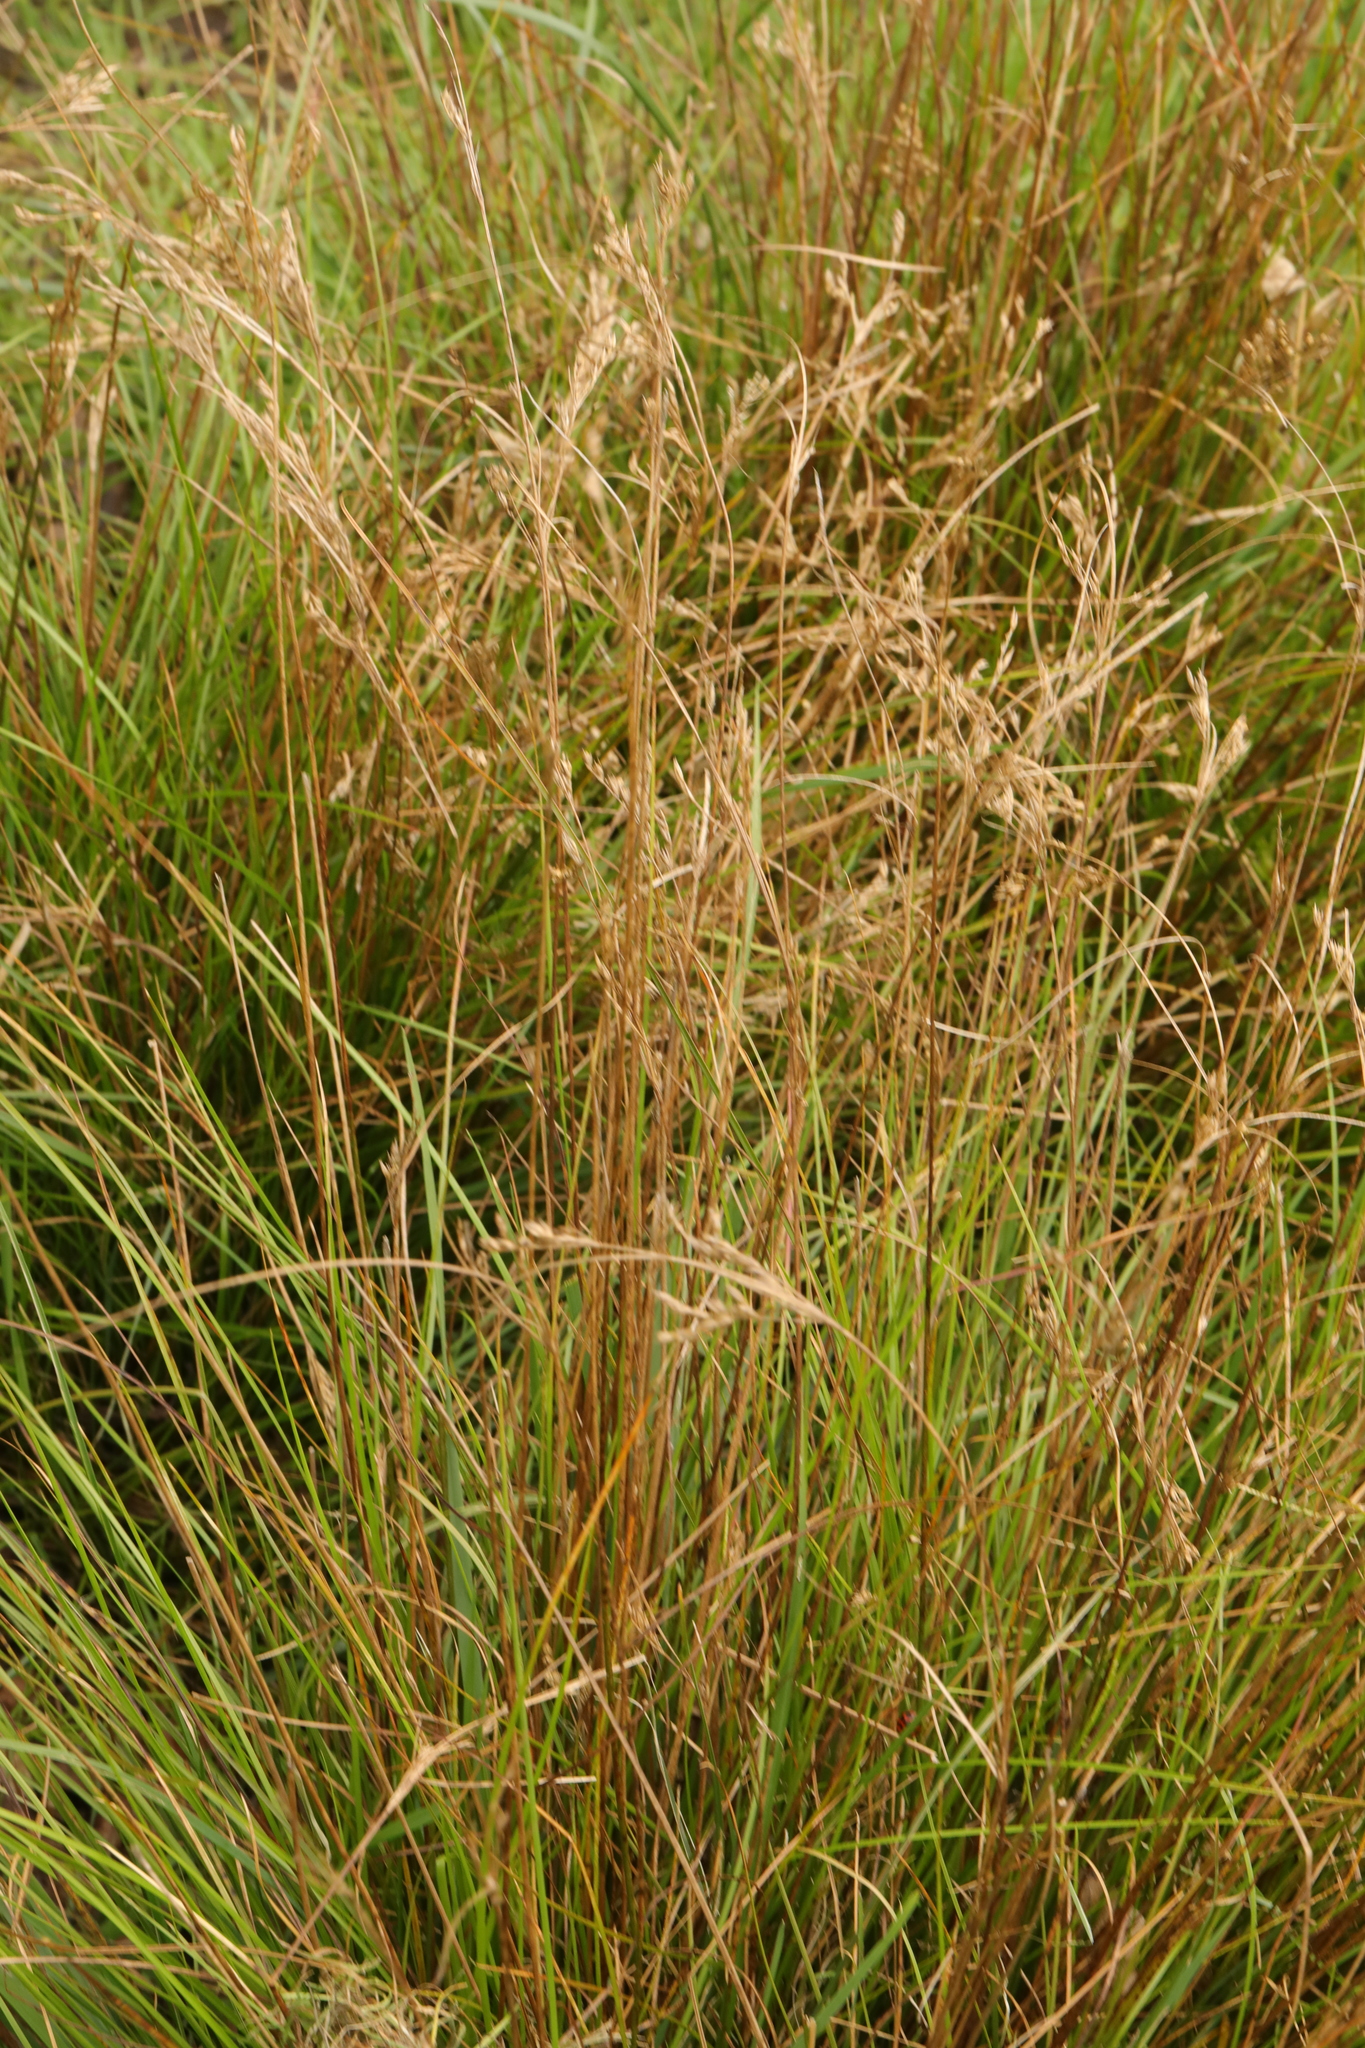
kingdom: Plantae
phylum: Tracheophyta
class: Liliopsida
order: Poales
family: Juncaceae
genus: Juncus
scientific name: Juncus inflexus
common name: Hard rush
